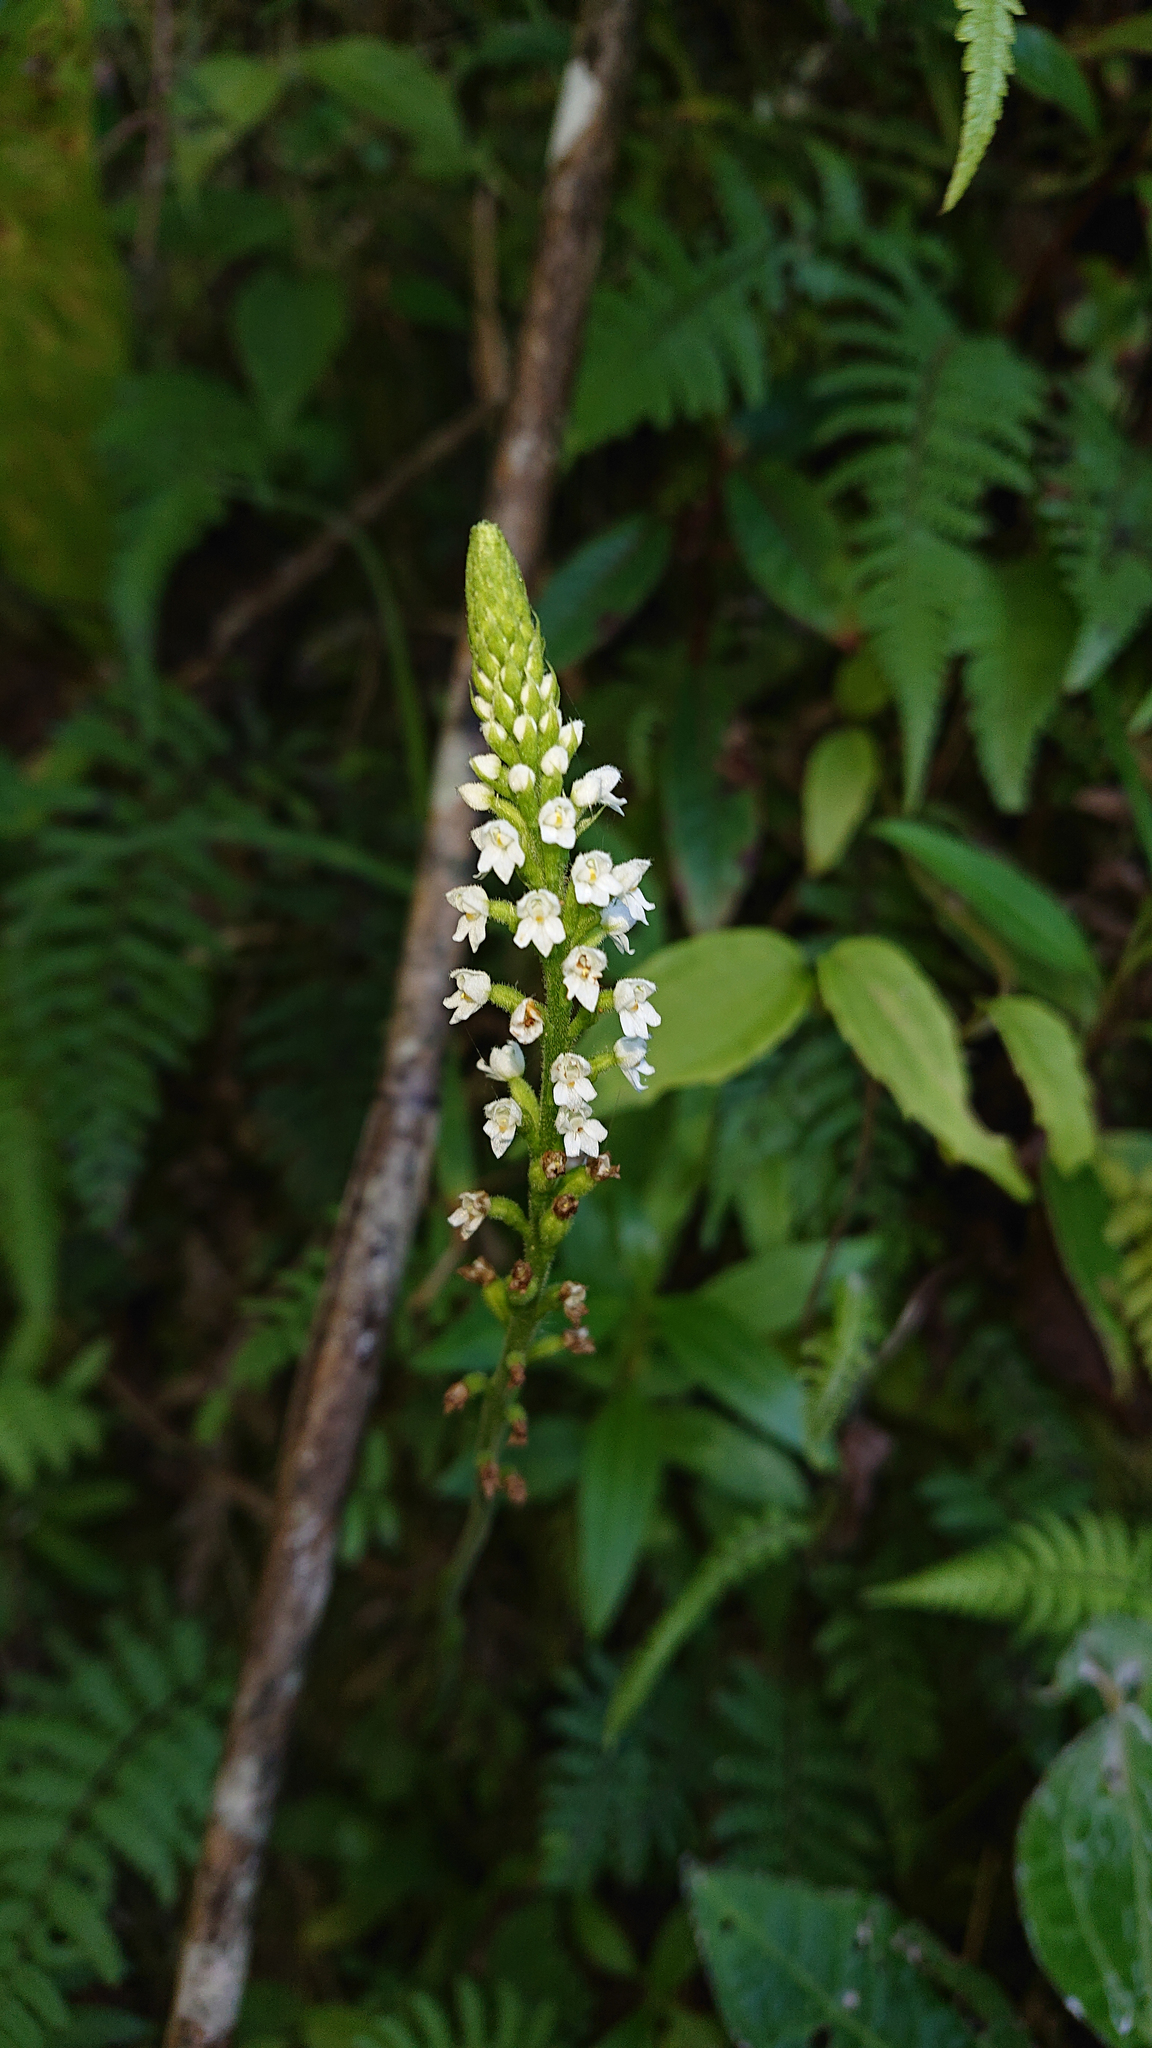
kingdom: Plantae
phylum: Tracheophyta
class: Liliopsida
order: Asparagales
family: Orchidaceae
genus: Ponthieva
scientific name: Ponthieva fertilis
